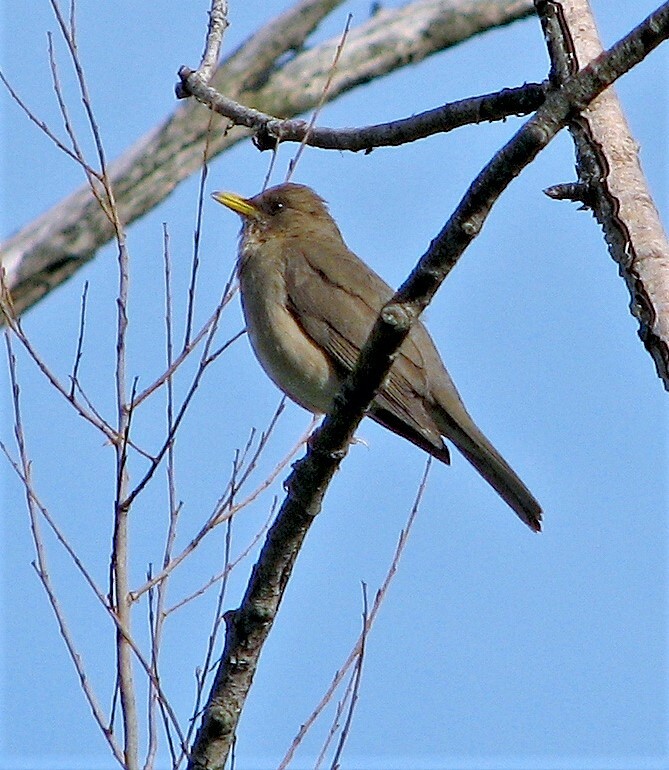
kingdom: Animalia
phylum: Chordata
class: Aves
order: Passeriformes
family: Turdidae
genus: Turdus
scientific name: Turdus amaurochalinus
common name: Creamy-bellied thrush
